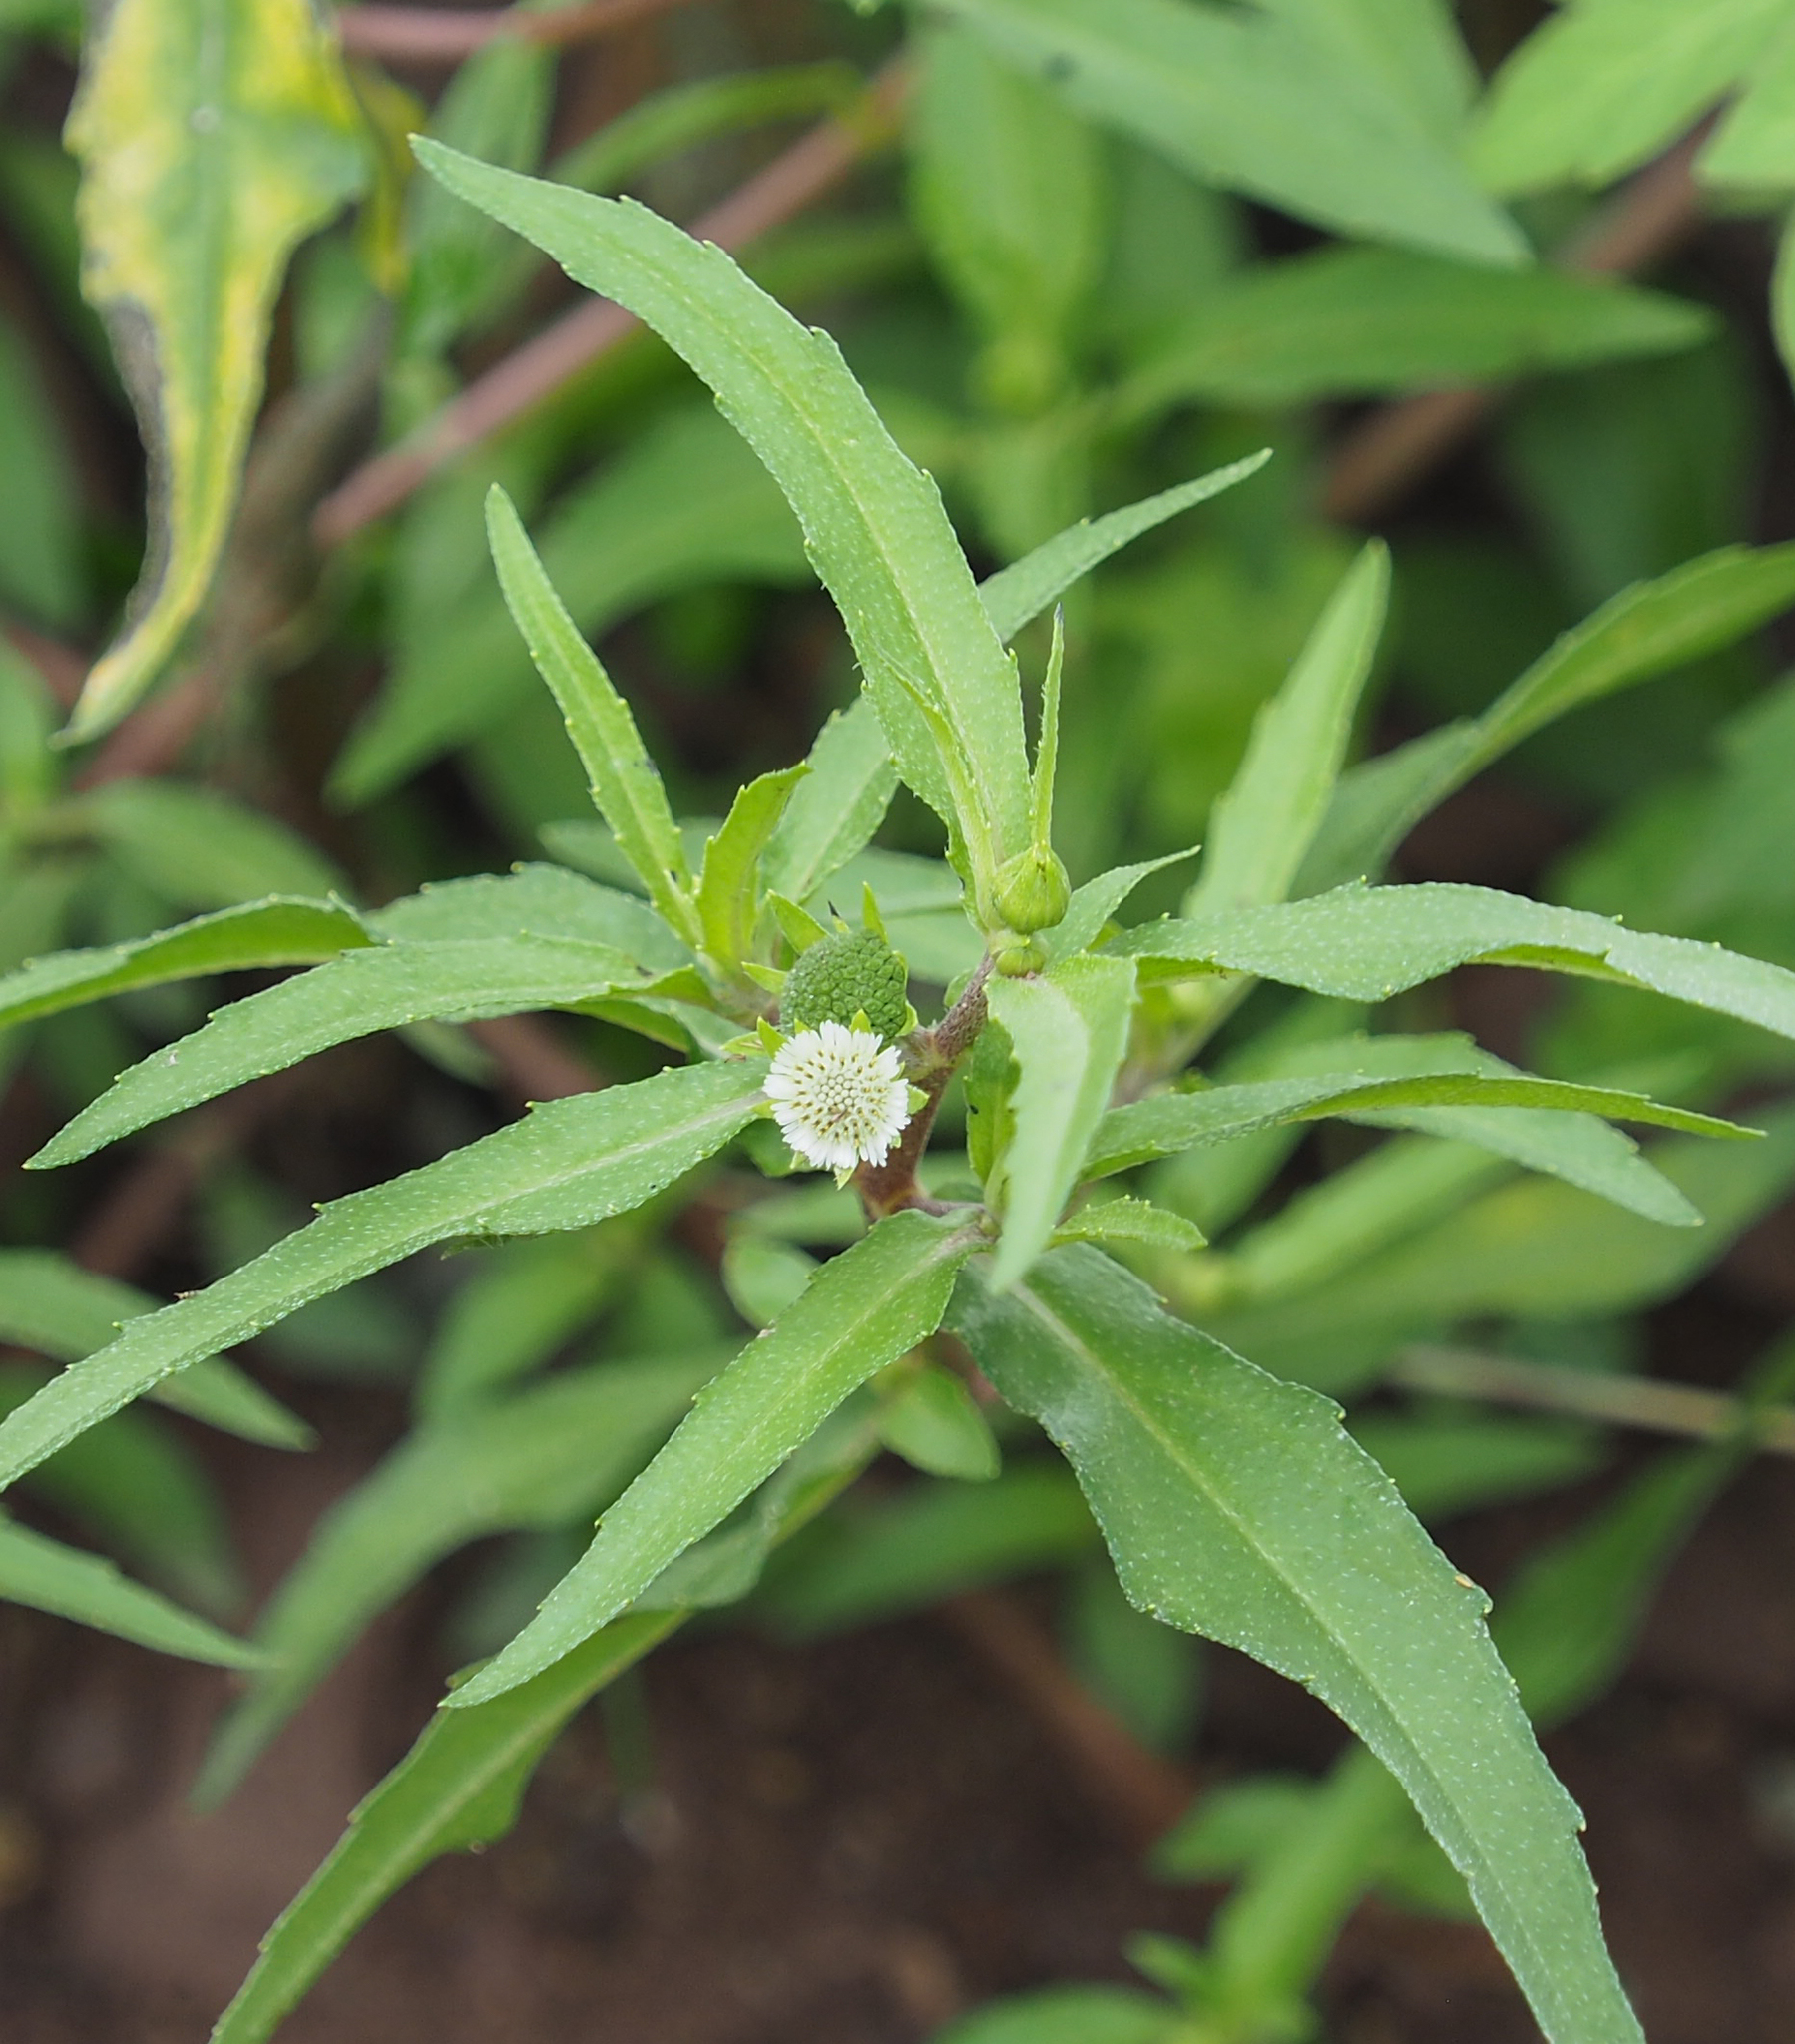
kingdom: Plantae
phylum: Tracheophyta
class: Magnoliopsida
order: Asterales
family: Asteraceae
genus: Eclipta
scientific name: Eclipta prostrata
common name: False daisy
